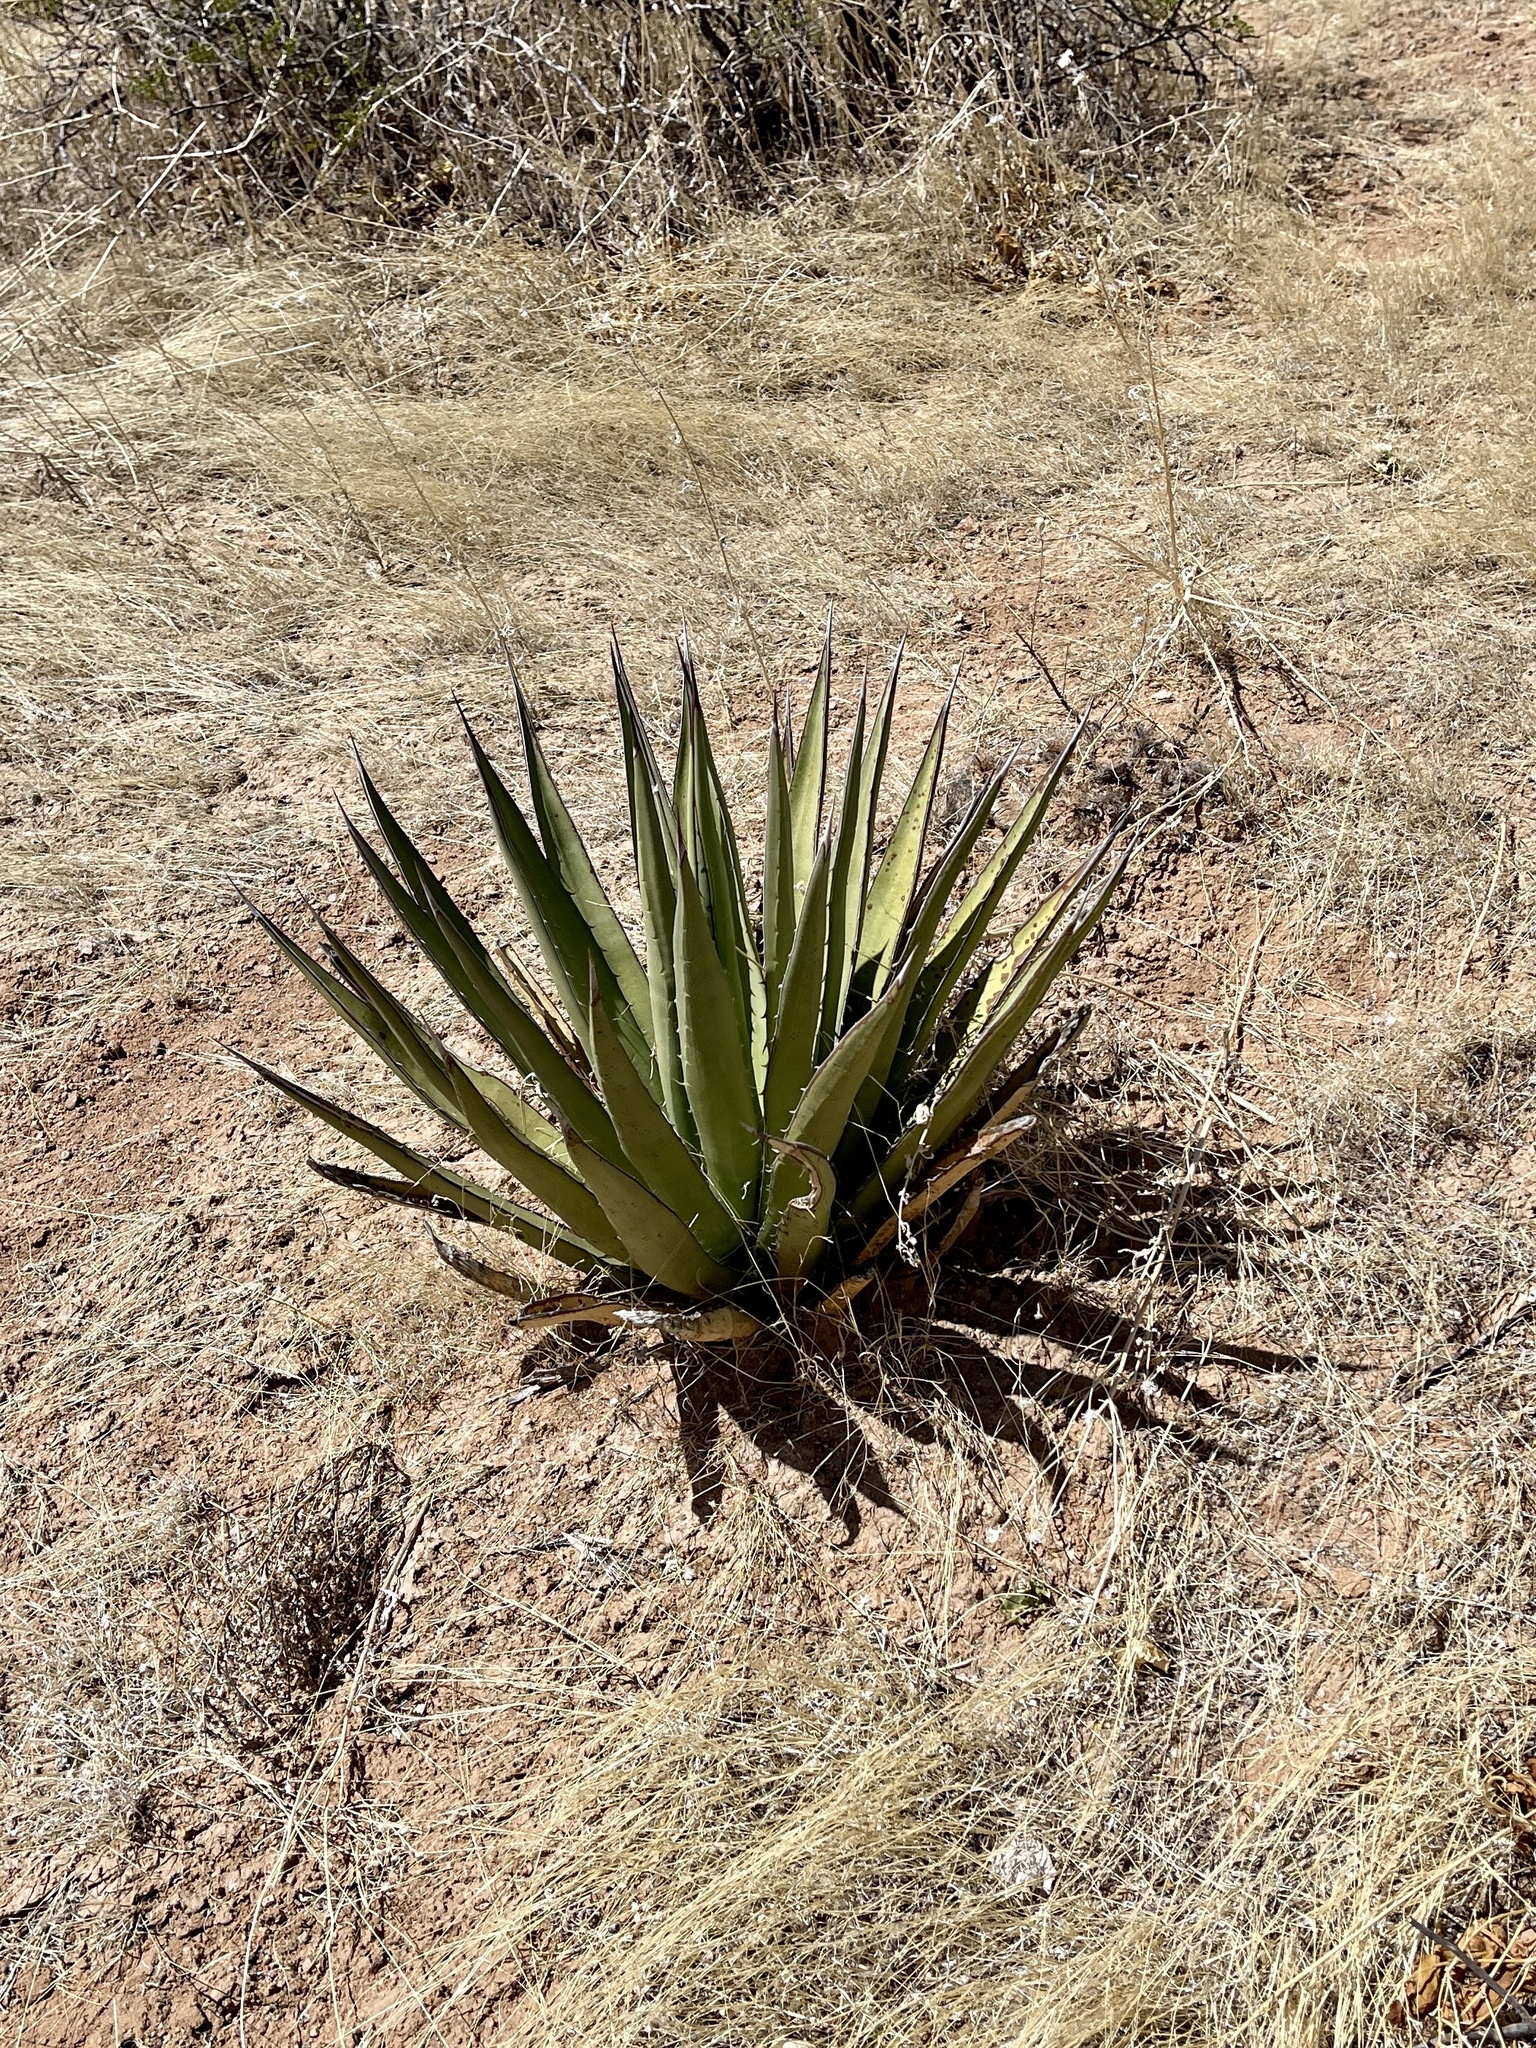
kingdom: Plantae
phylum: Tracheophyta
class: Liliopsida
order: Asparagales
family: Asparagaceae
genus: Agave
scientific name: Agave lechuguilla
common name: Lecheguilla agave
